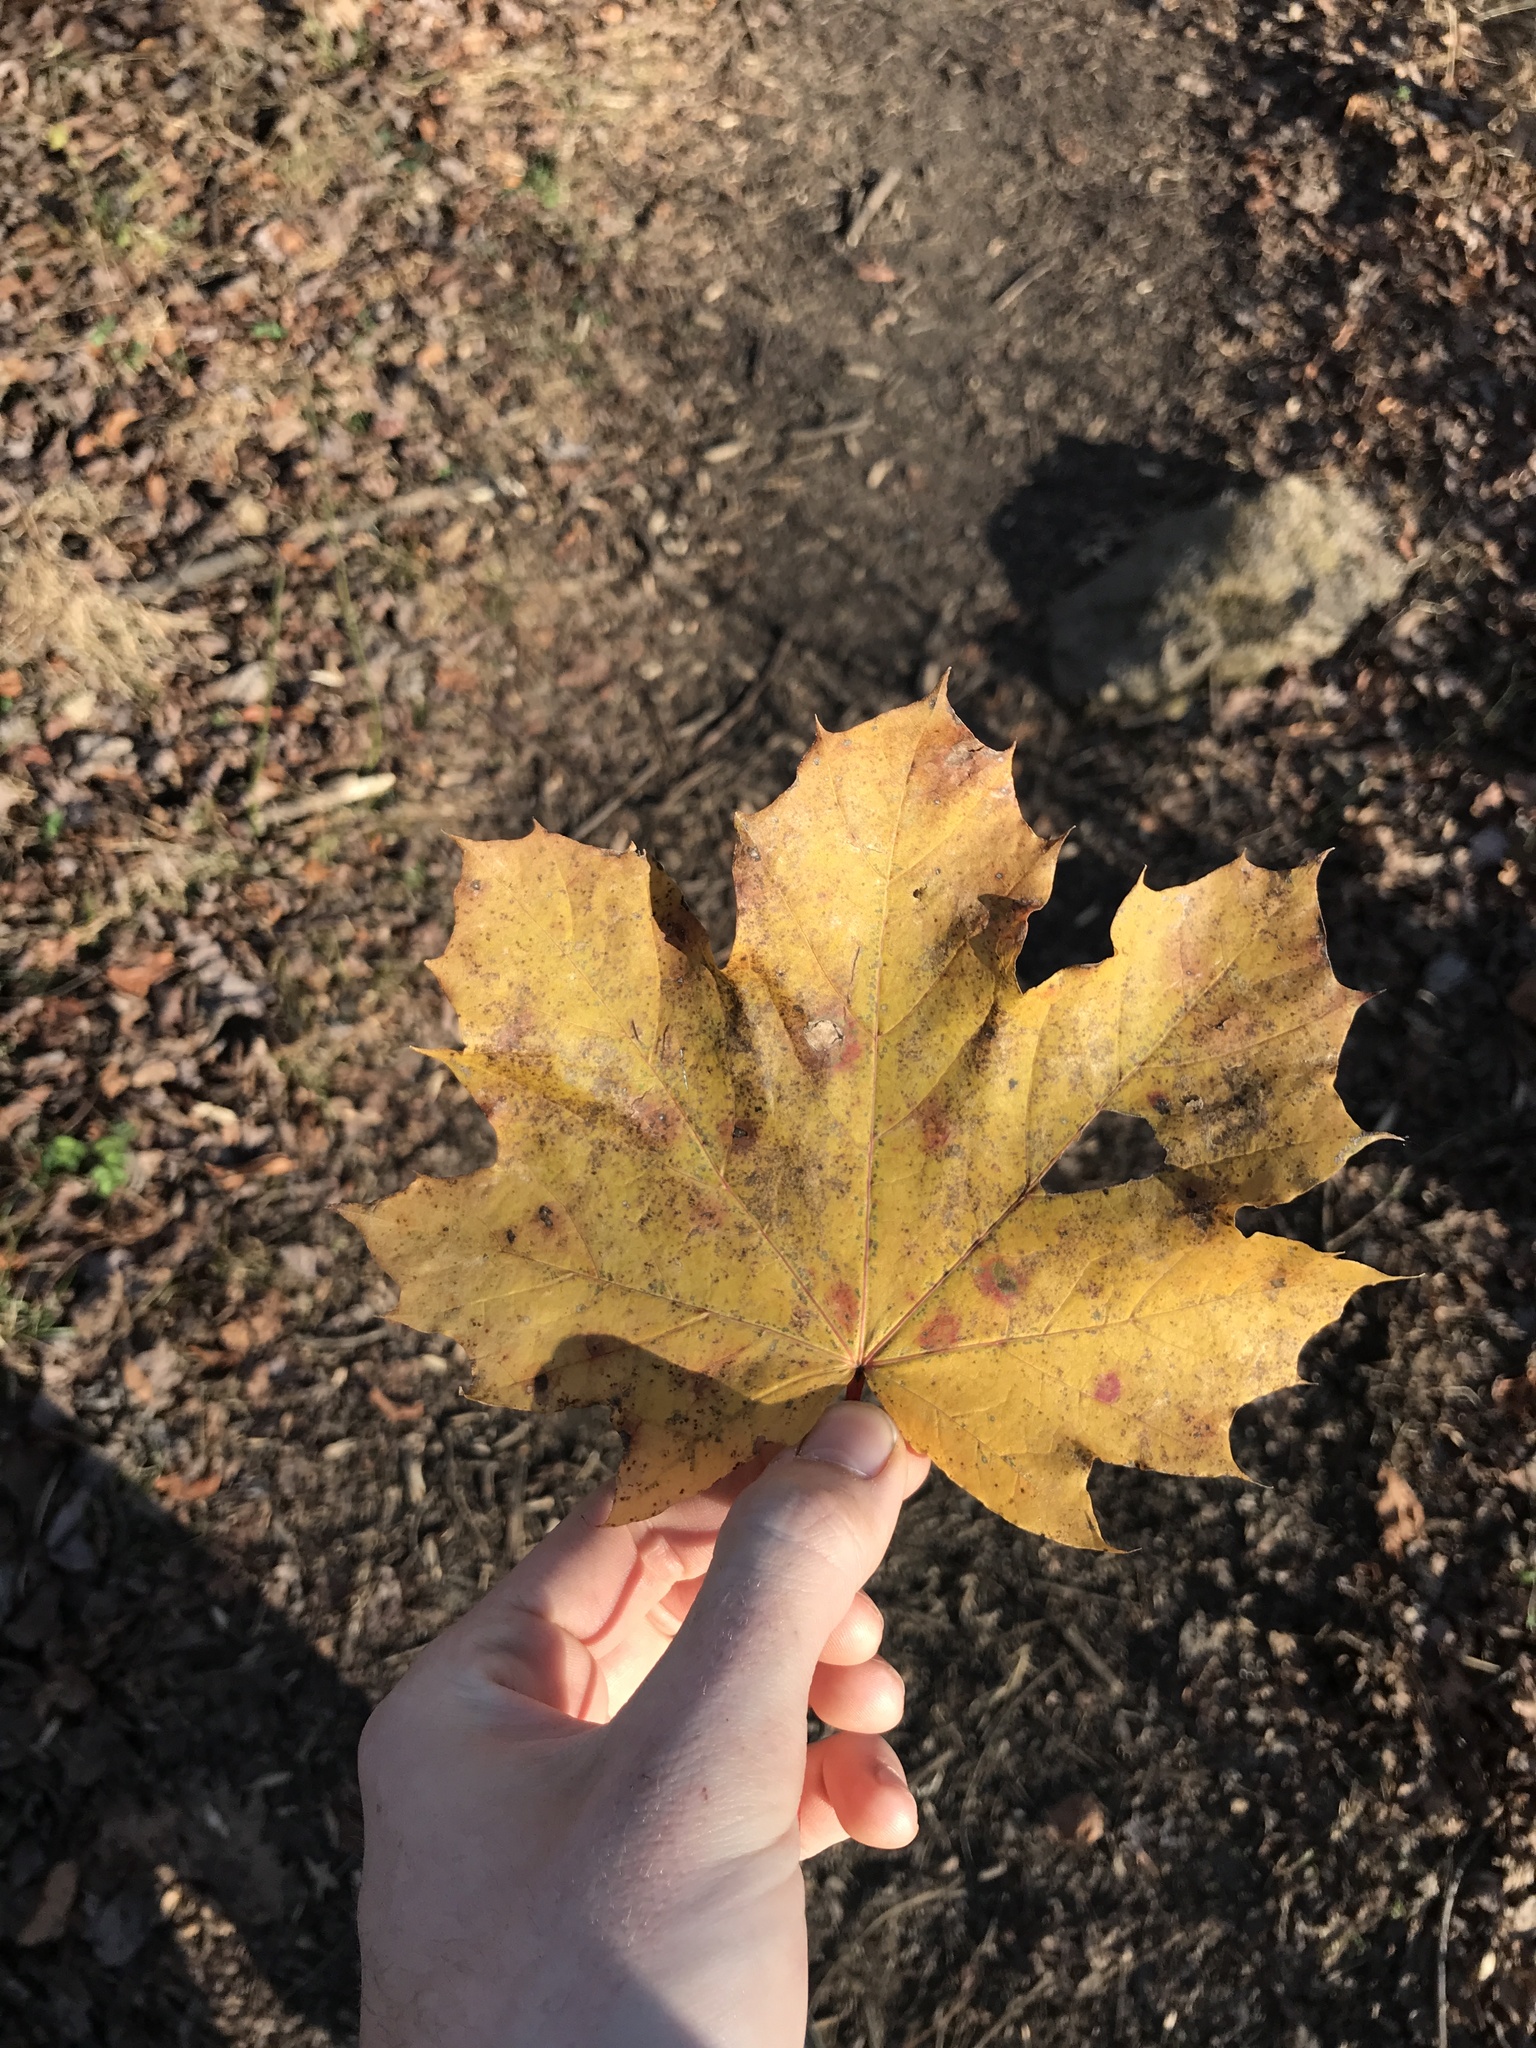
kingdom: Plantae
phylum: Tracheophyta
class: Magnoliopsida
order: Sapindales
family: Sapindaceae
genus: Acer
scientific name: Acer platanoides
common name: Norway maple
